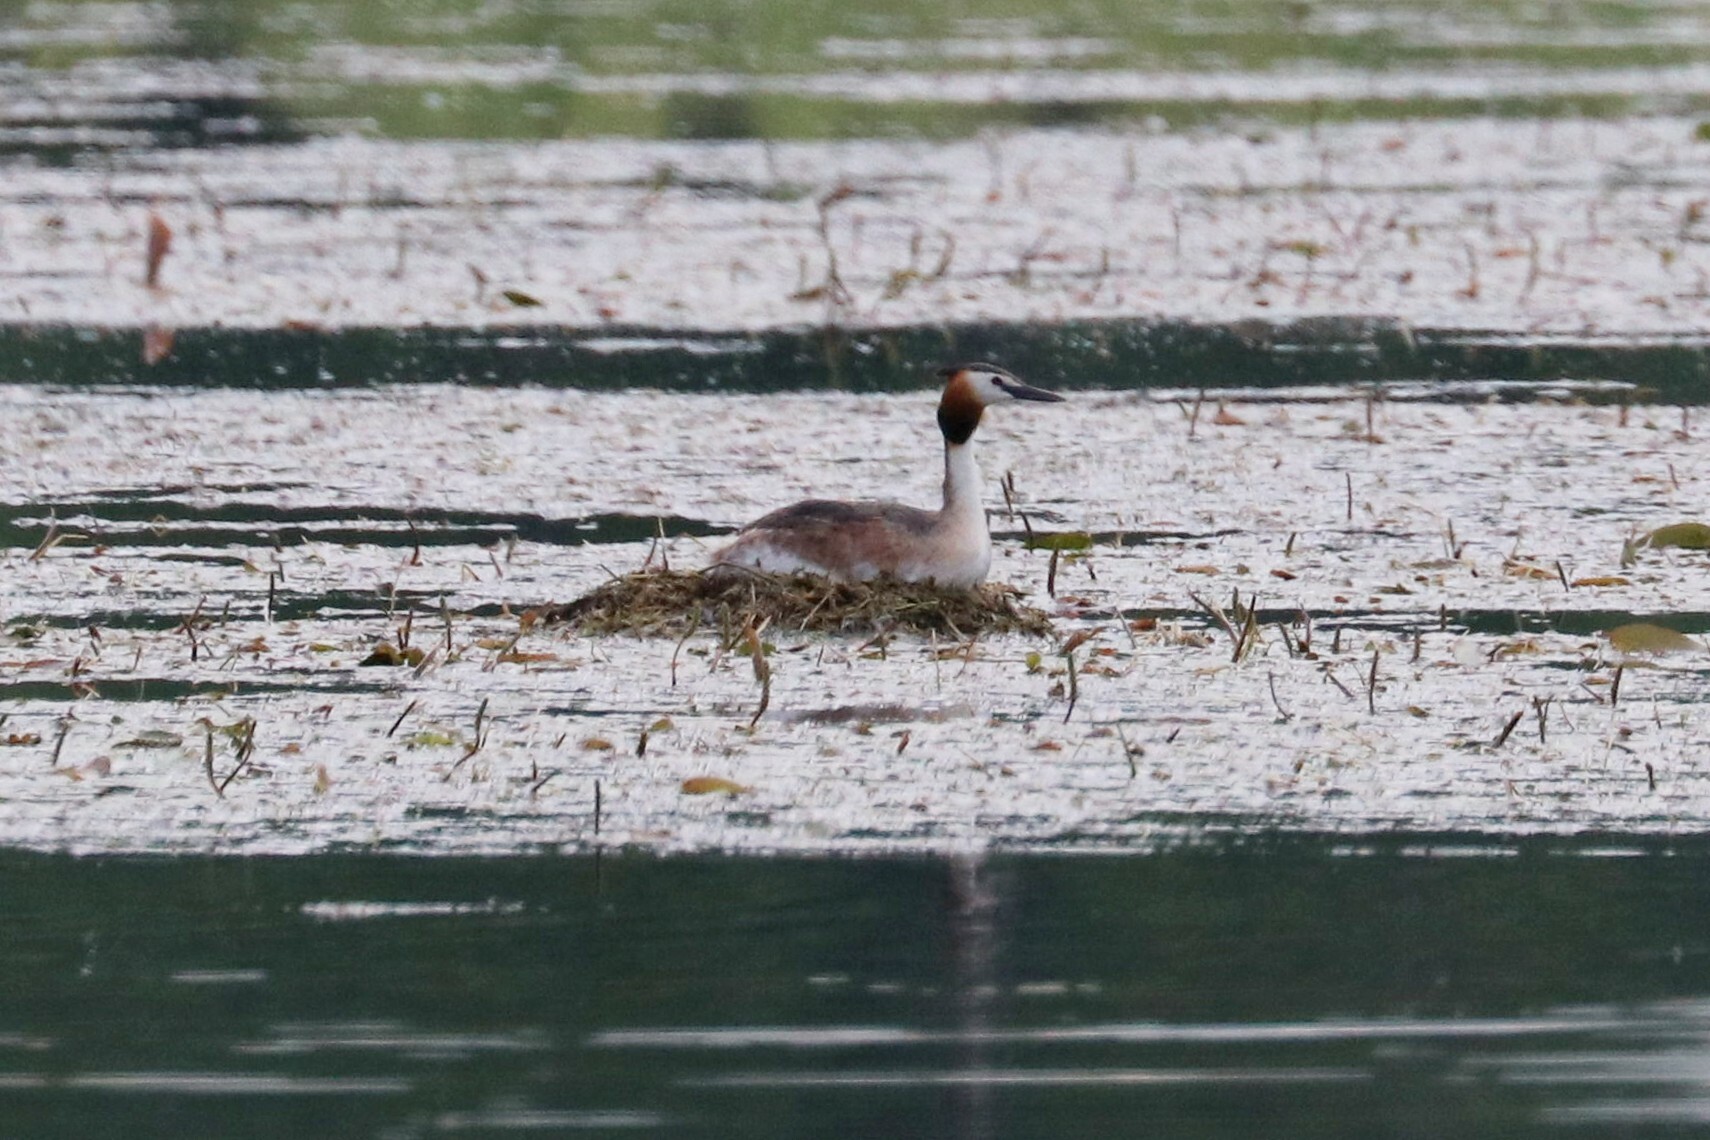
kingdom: Animalia
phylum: Chordata
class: Aves
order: Podicipediformes
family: Podicipedidae
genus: Podiceps
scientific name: Podiceps cristatus
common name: Great crested grebe
